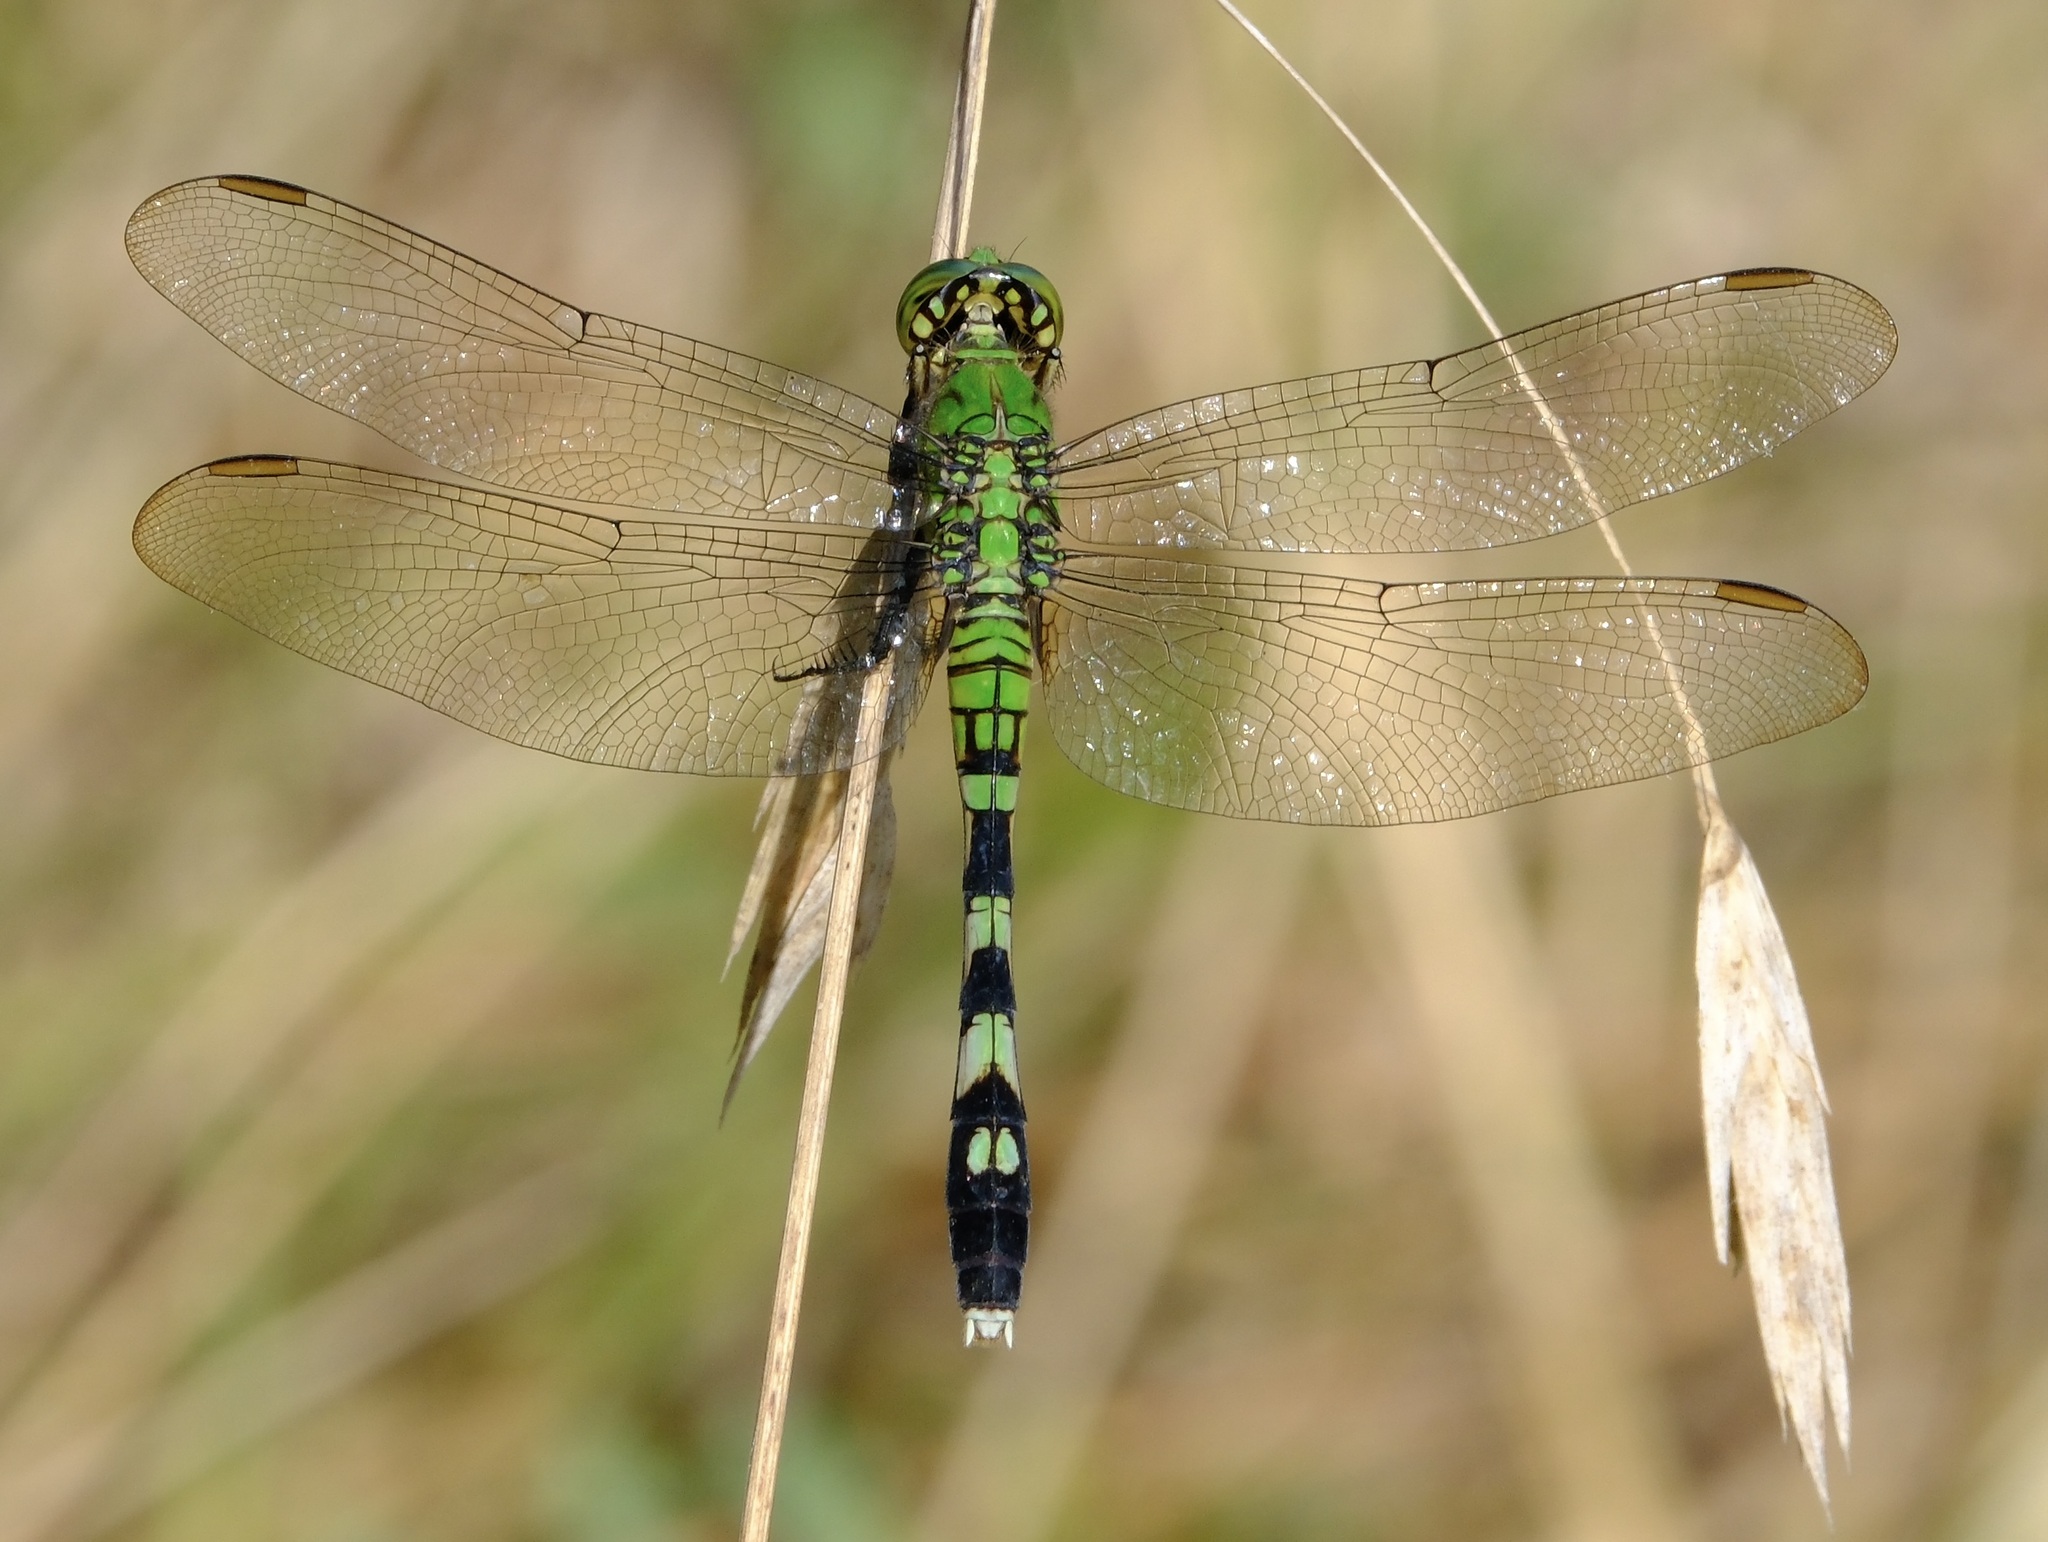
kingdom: Animalia
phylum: Arthropoda
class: Insecta
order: Odonata
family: Libellulidae
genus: Erythemis
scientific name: Erythemis simplicicollis
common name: Eastern pondhawk
